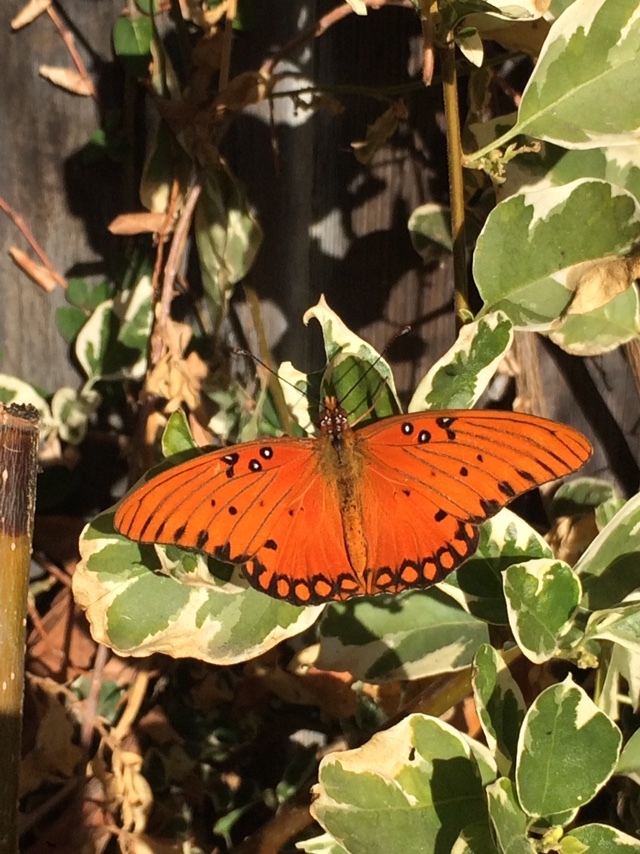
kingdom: Animalia
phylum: Arthropoda
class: Insecta
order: Lepidoptera
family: Nymphalidae
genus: Dione
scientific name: Dione vanillae
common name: Gulf fritillary
